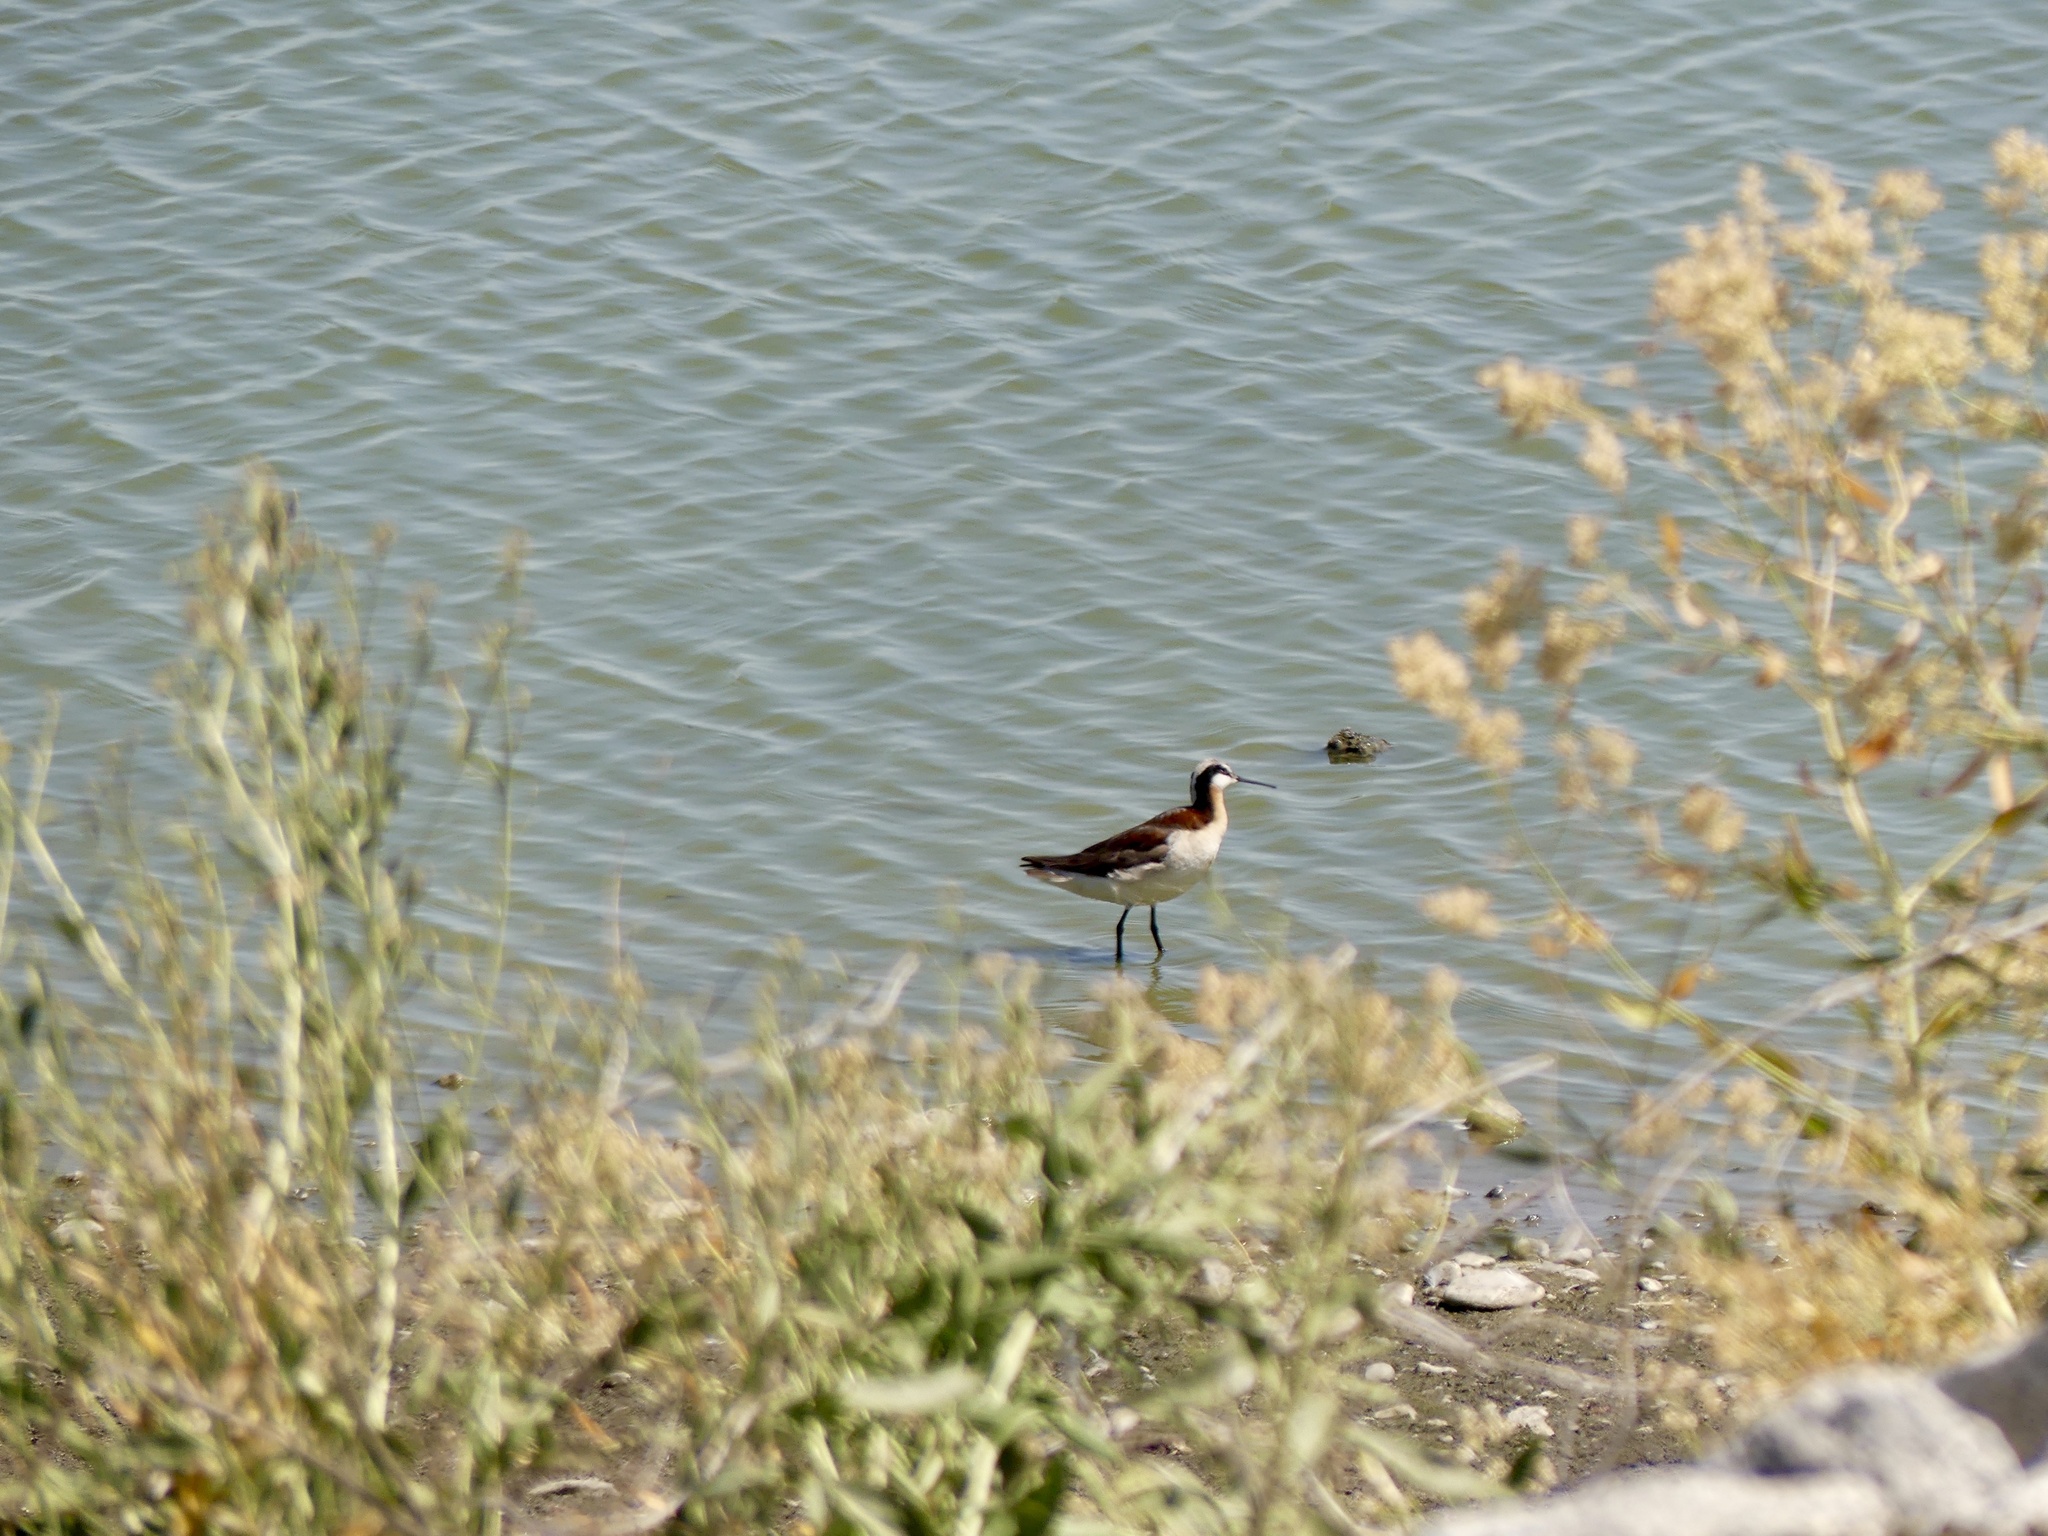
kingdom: Animalia
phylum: Chordata
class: Aves
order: Charadriiformes
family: Scolopacidae
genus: Phalaropus
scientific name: Phalaropus tricolor
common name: Wilson's phalarope
